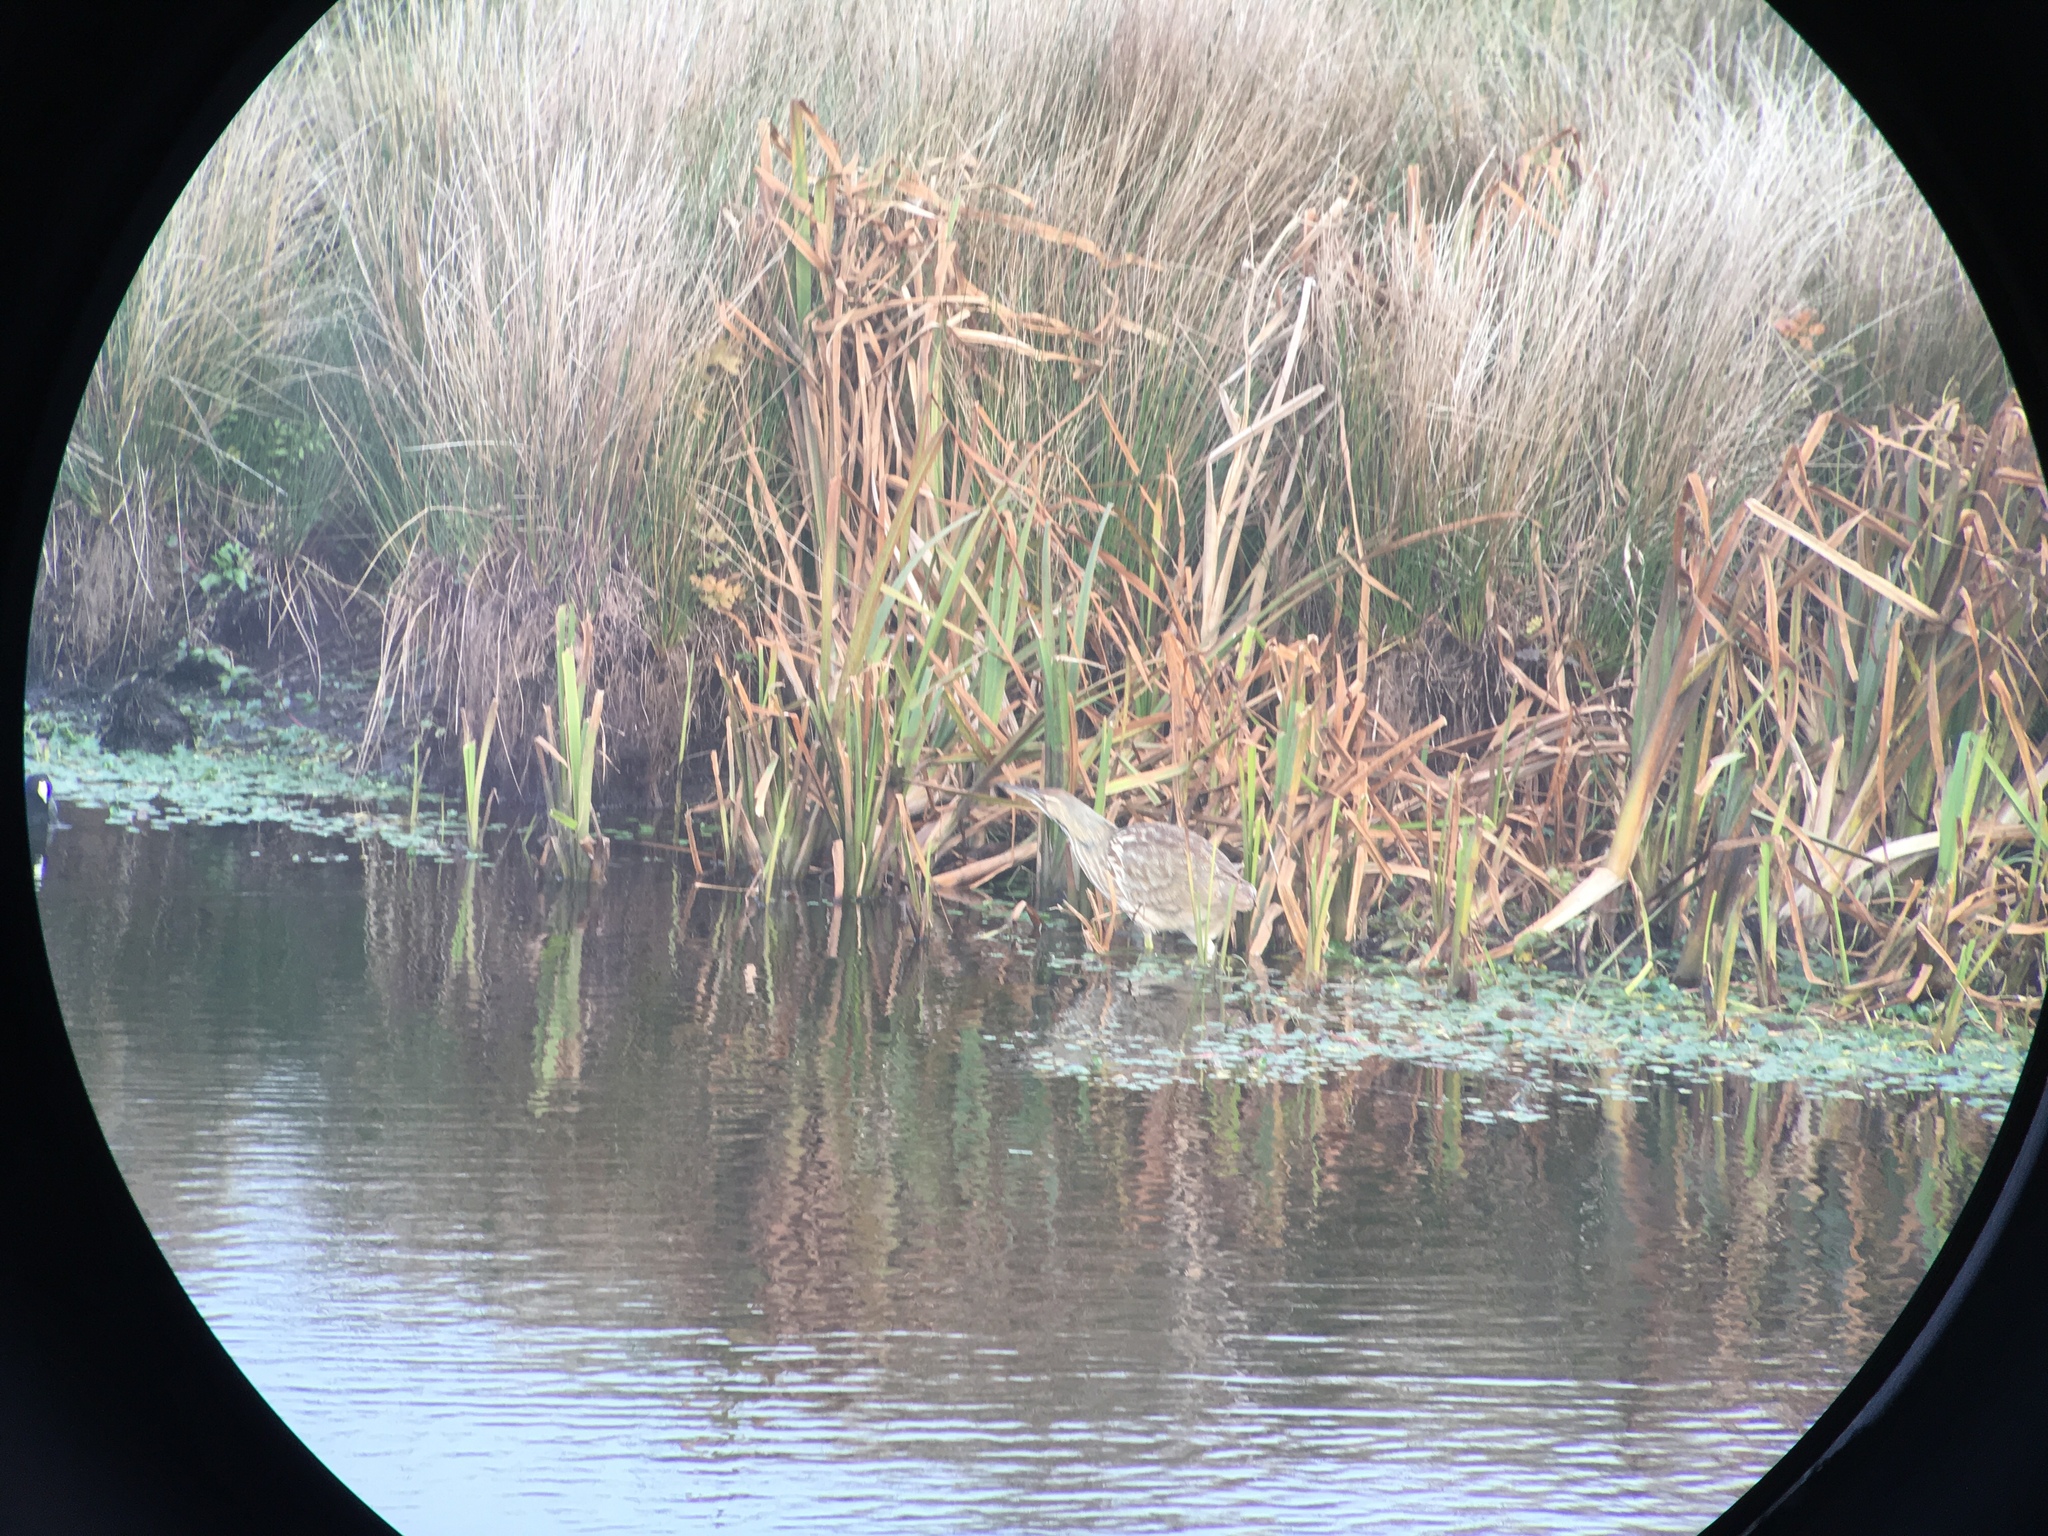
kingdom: Animalia
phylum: Chordata
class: Aves
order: Pelecaniformes
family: Ardeidae
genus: Botaurus
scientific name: Botaurus lentiginosus
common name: American bittern
